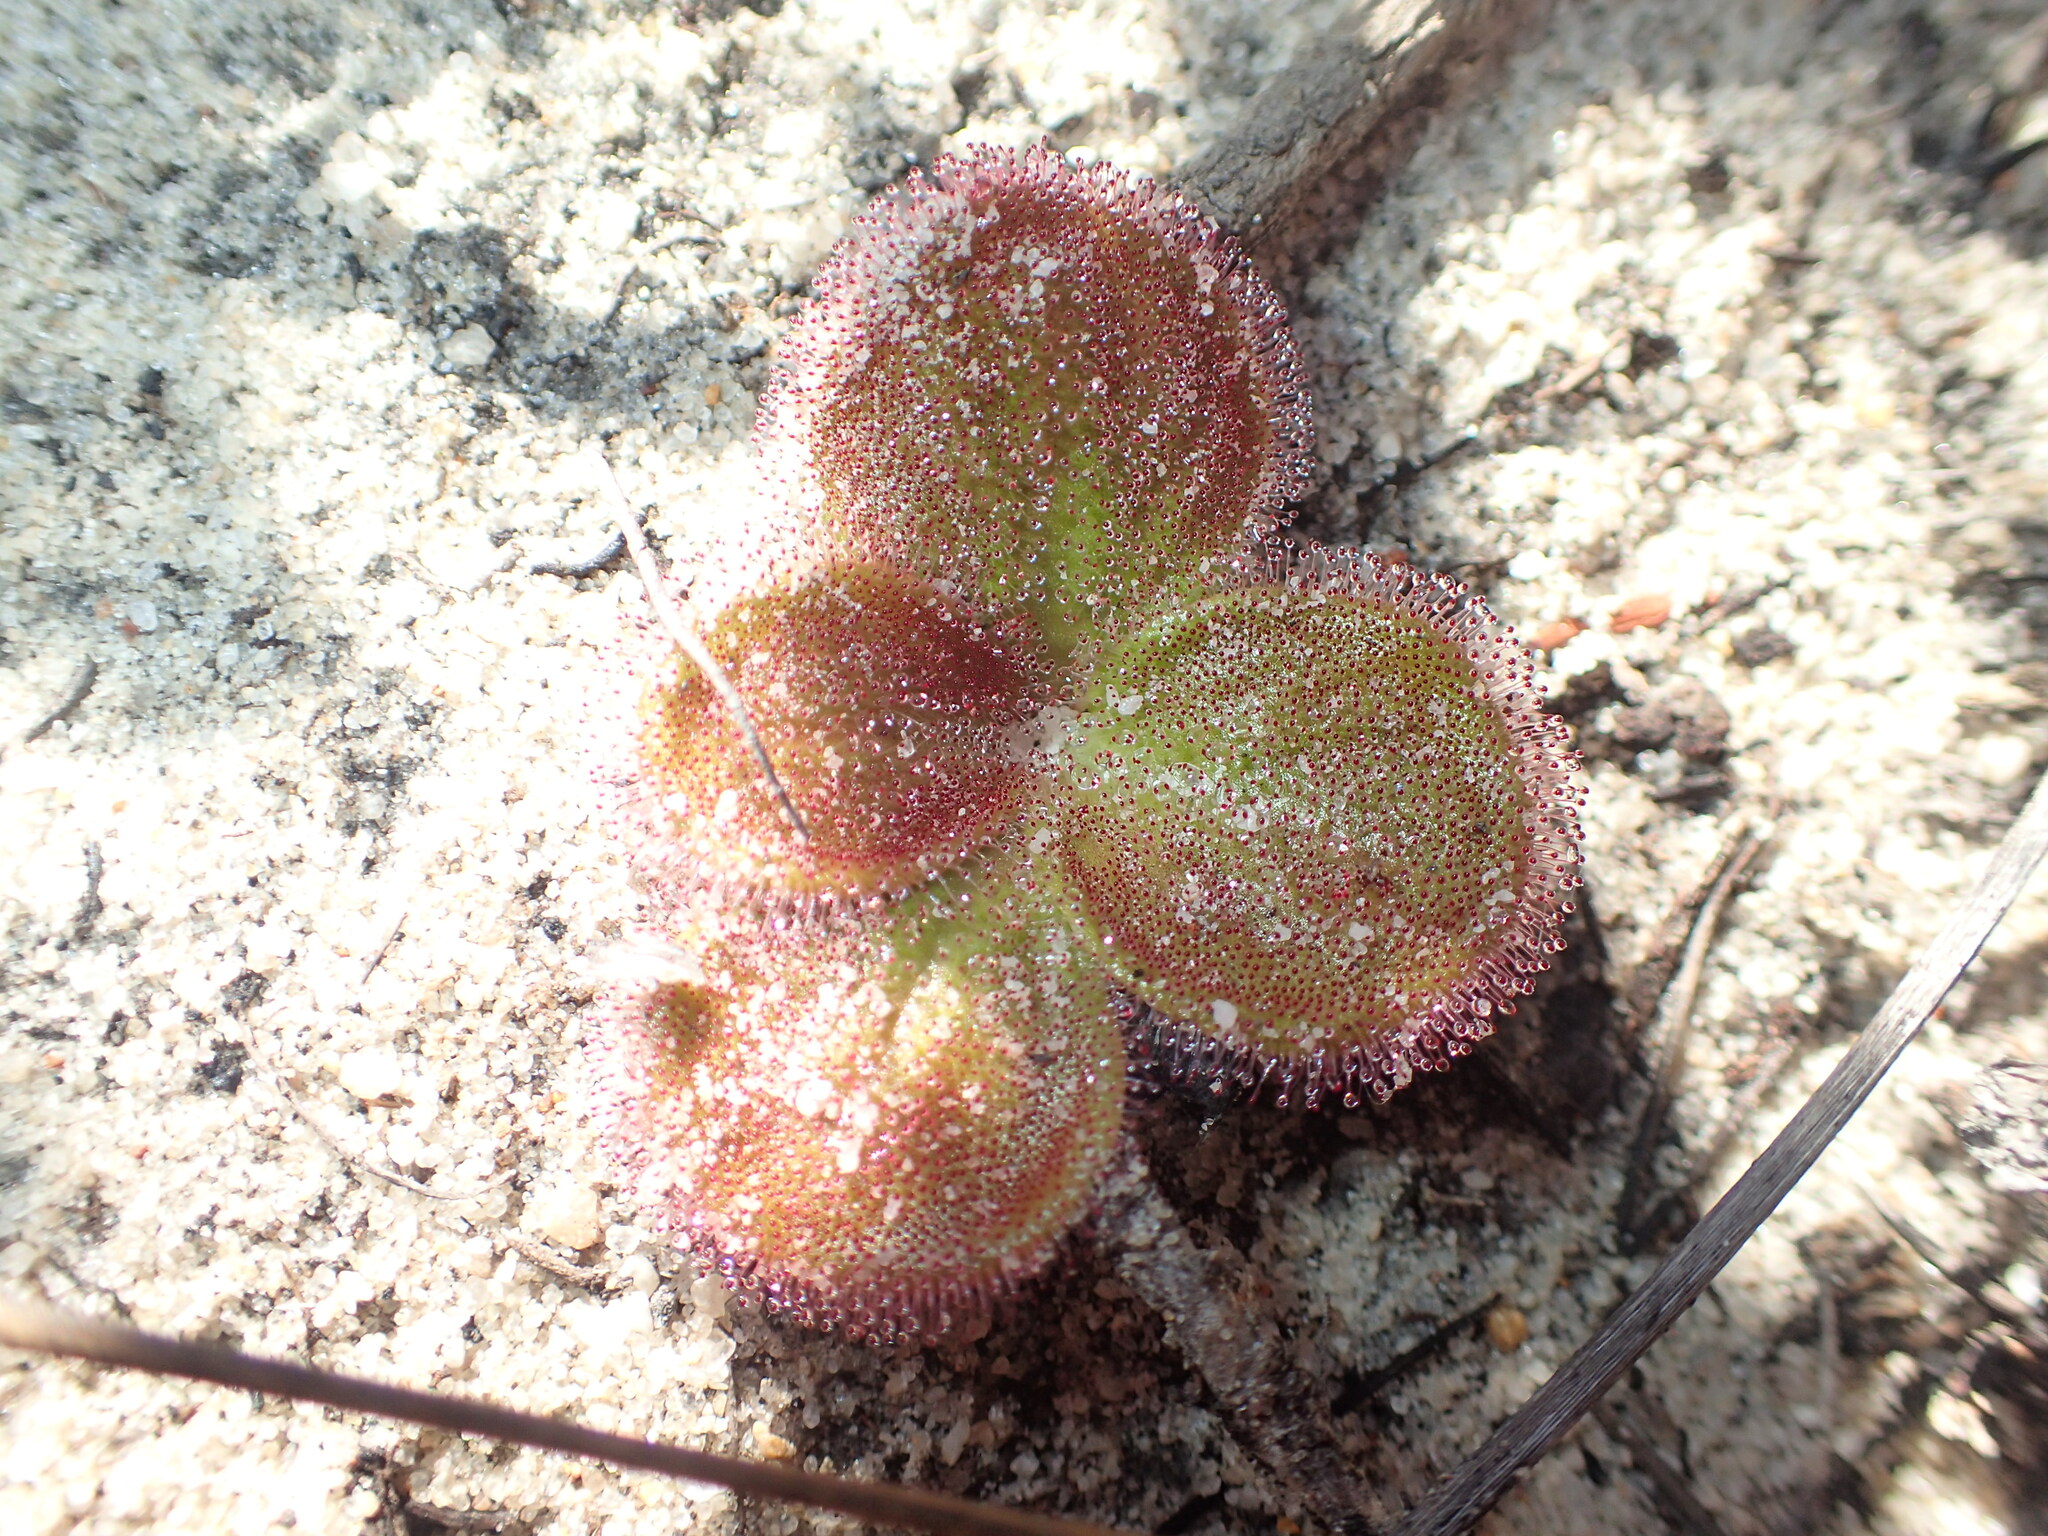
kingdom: Plantae
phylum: Tracheophyta
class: Magnoliopsida
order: Caryophyllales
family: Droseraceae
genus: Drosera
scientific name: Drosera erythrorhiza
